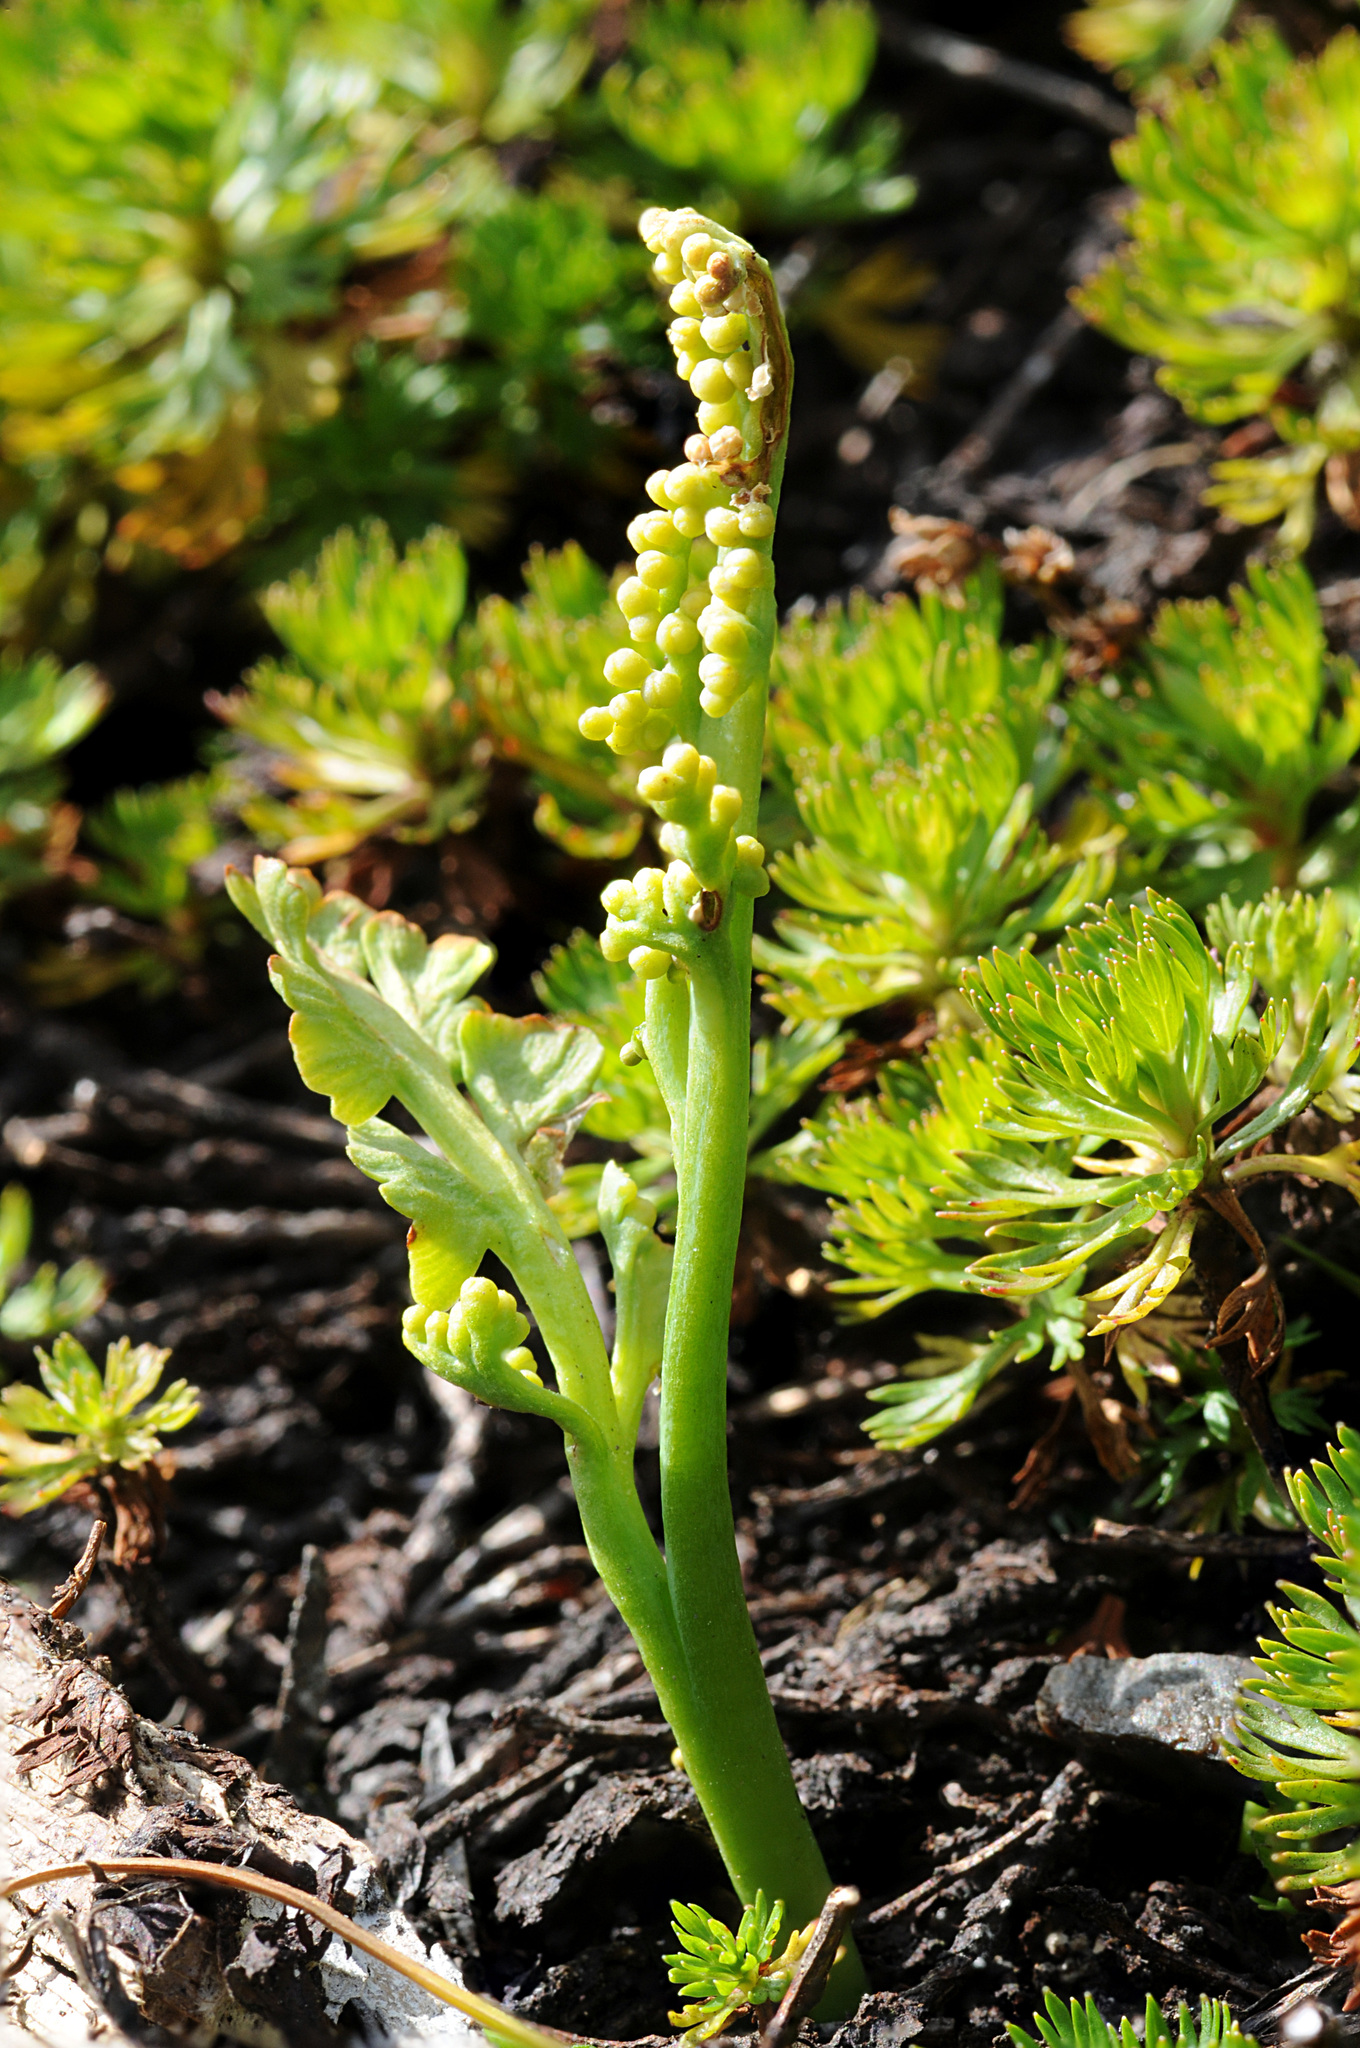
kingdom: Plantae
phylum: Tracheophyta
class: Polypodiopsida
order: Ophioglossales
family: Ophioglossaceae
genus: Botrychium
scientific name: Botrychium montanum
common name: Mountain moonwort
